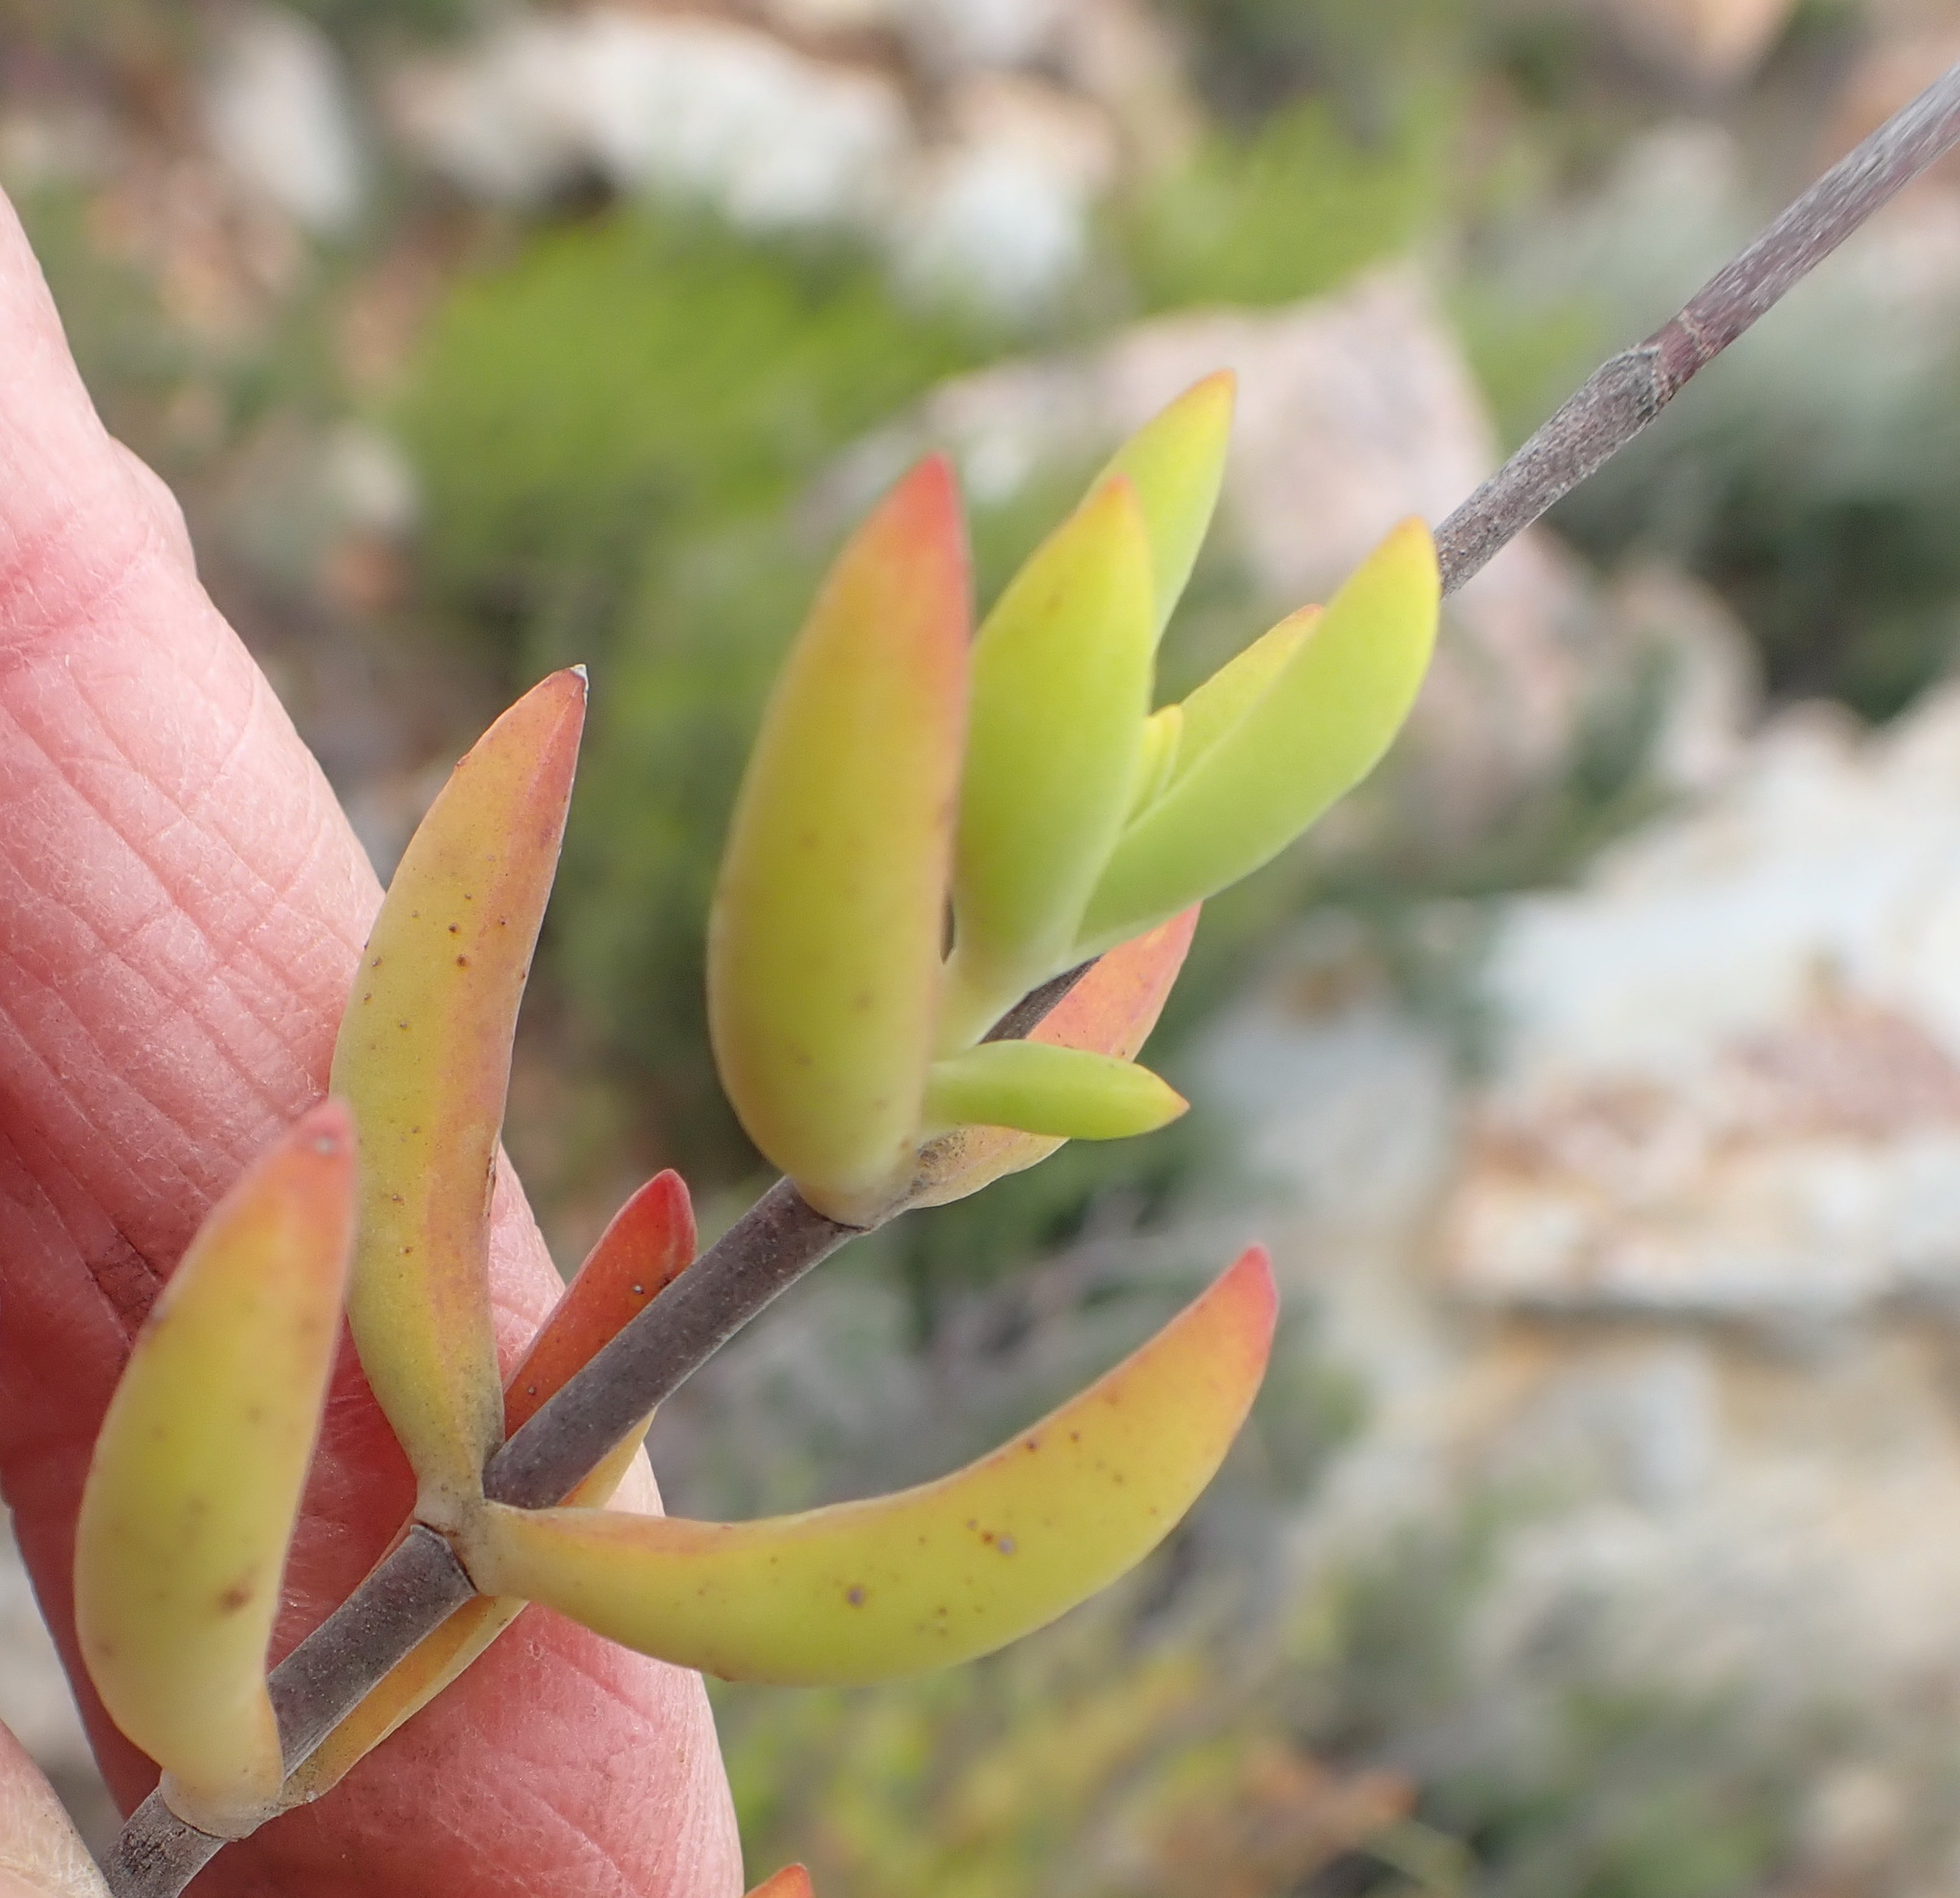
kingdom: Plantae
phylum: Tracheophyta
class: Magnoliopsida
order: Saxifragales
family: Crassulaceae
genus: Crassula
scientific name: Crassula mollis
